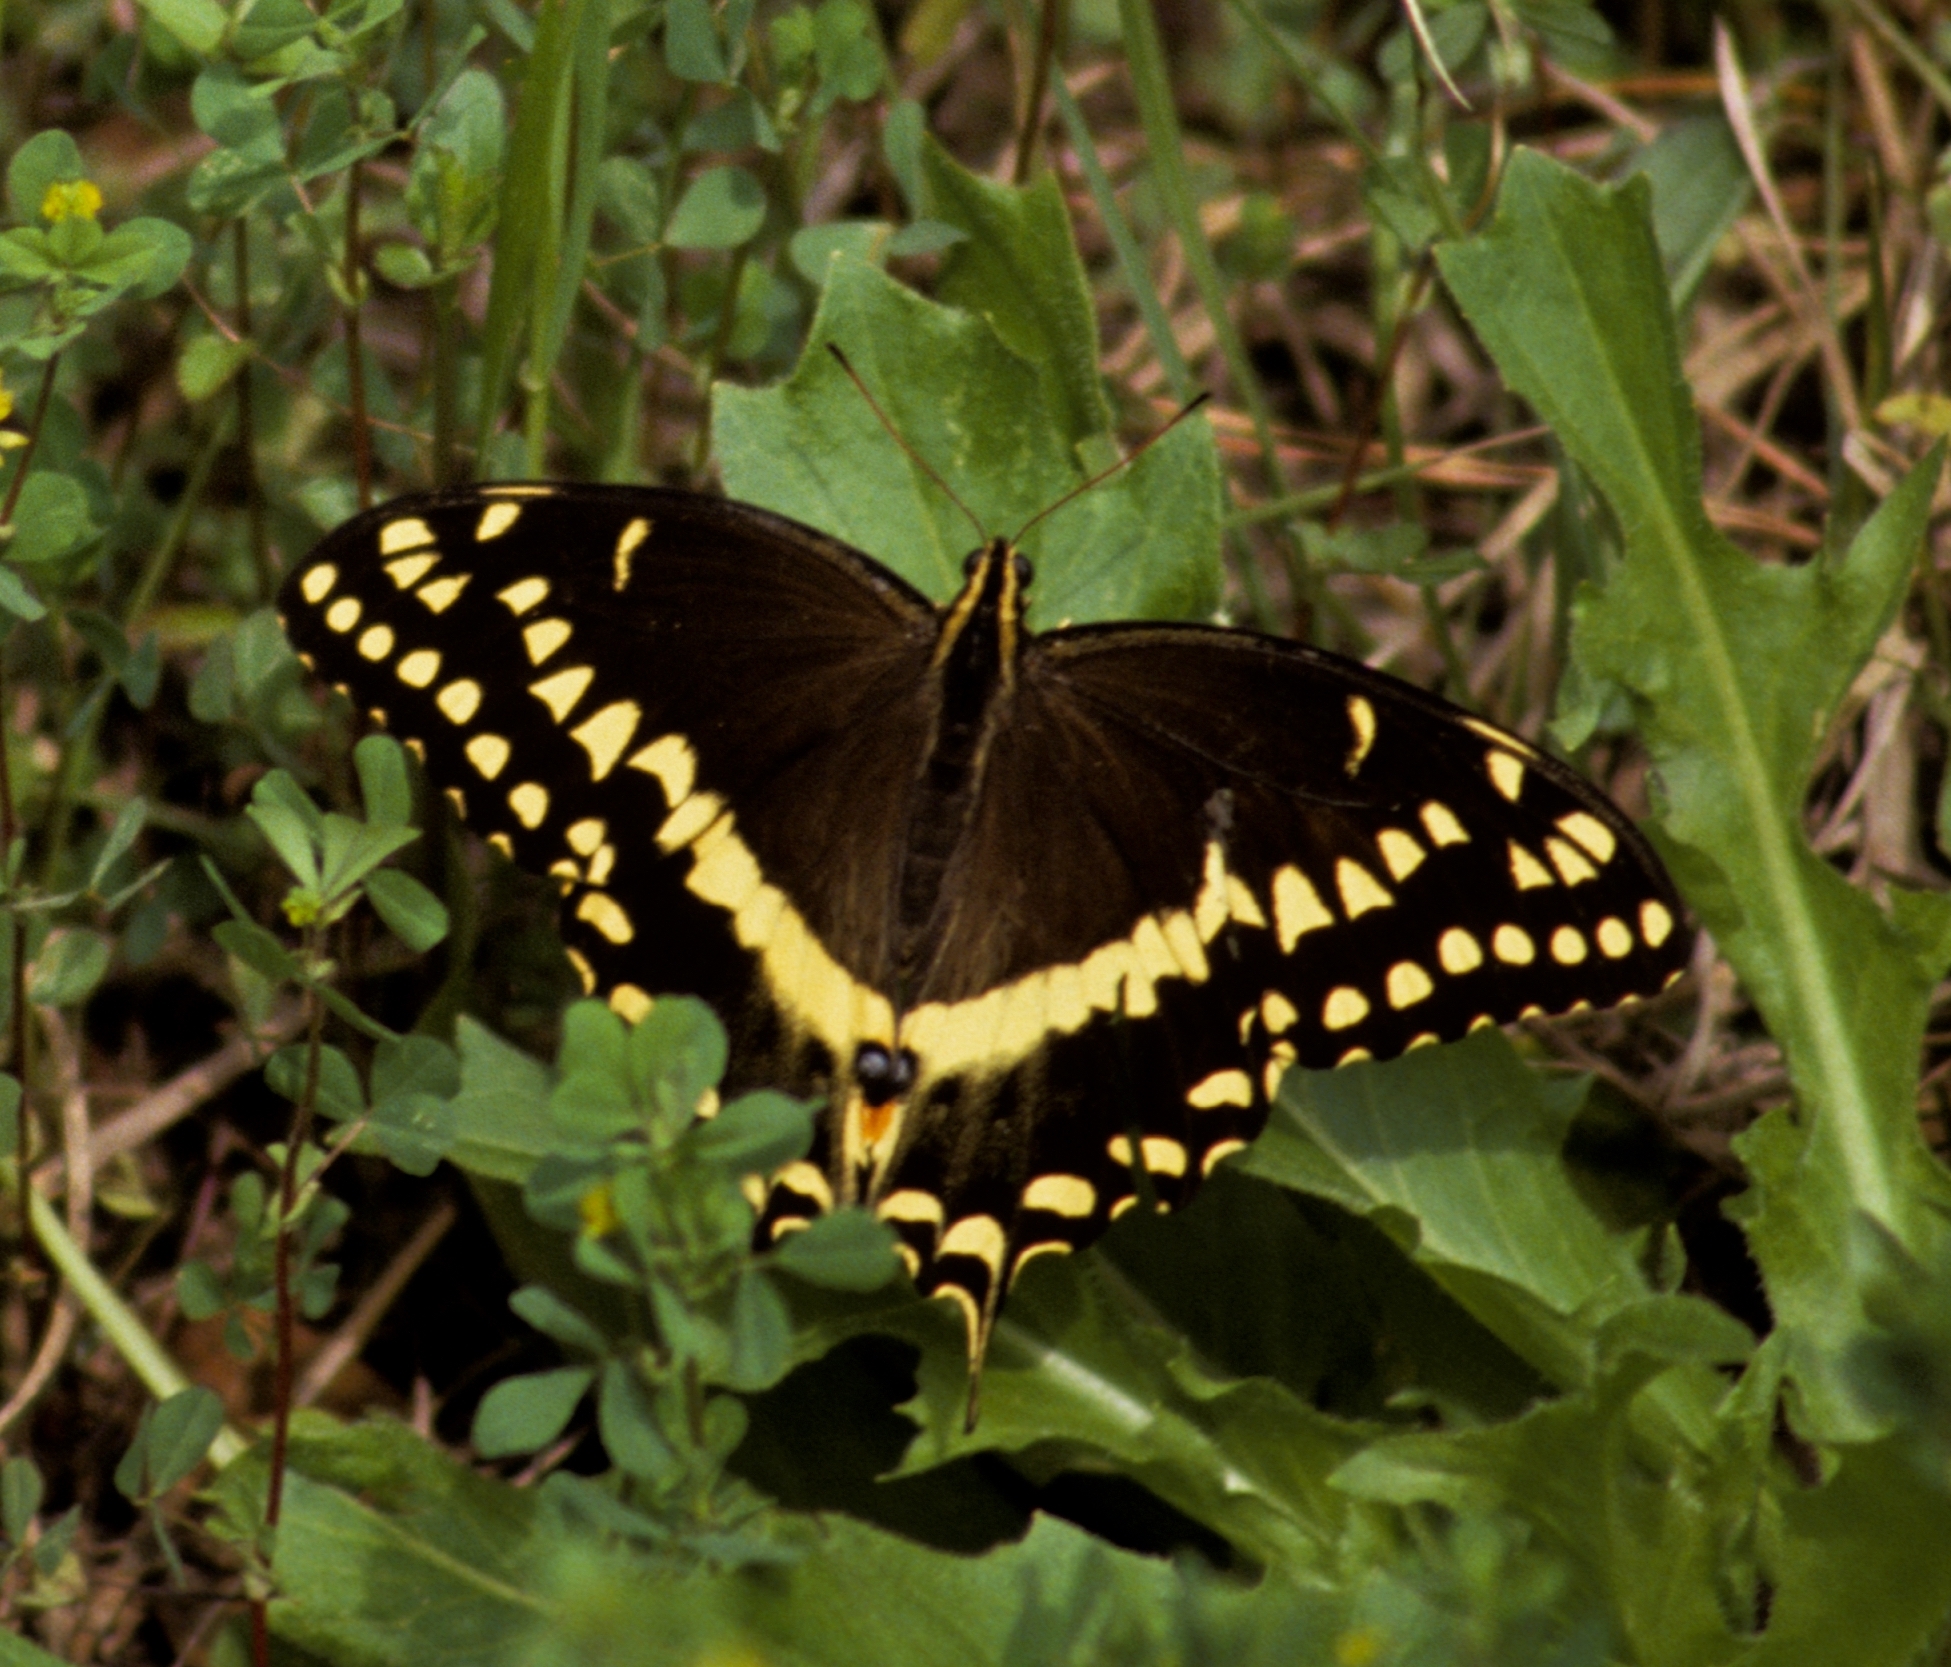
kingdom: Animalia
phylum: Arthropoda
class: Insecta
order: Lepidoptera
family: Papilionidae
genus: Papilio
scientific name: Papilio palamedes
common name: Palamedes swallowtail
